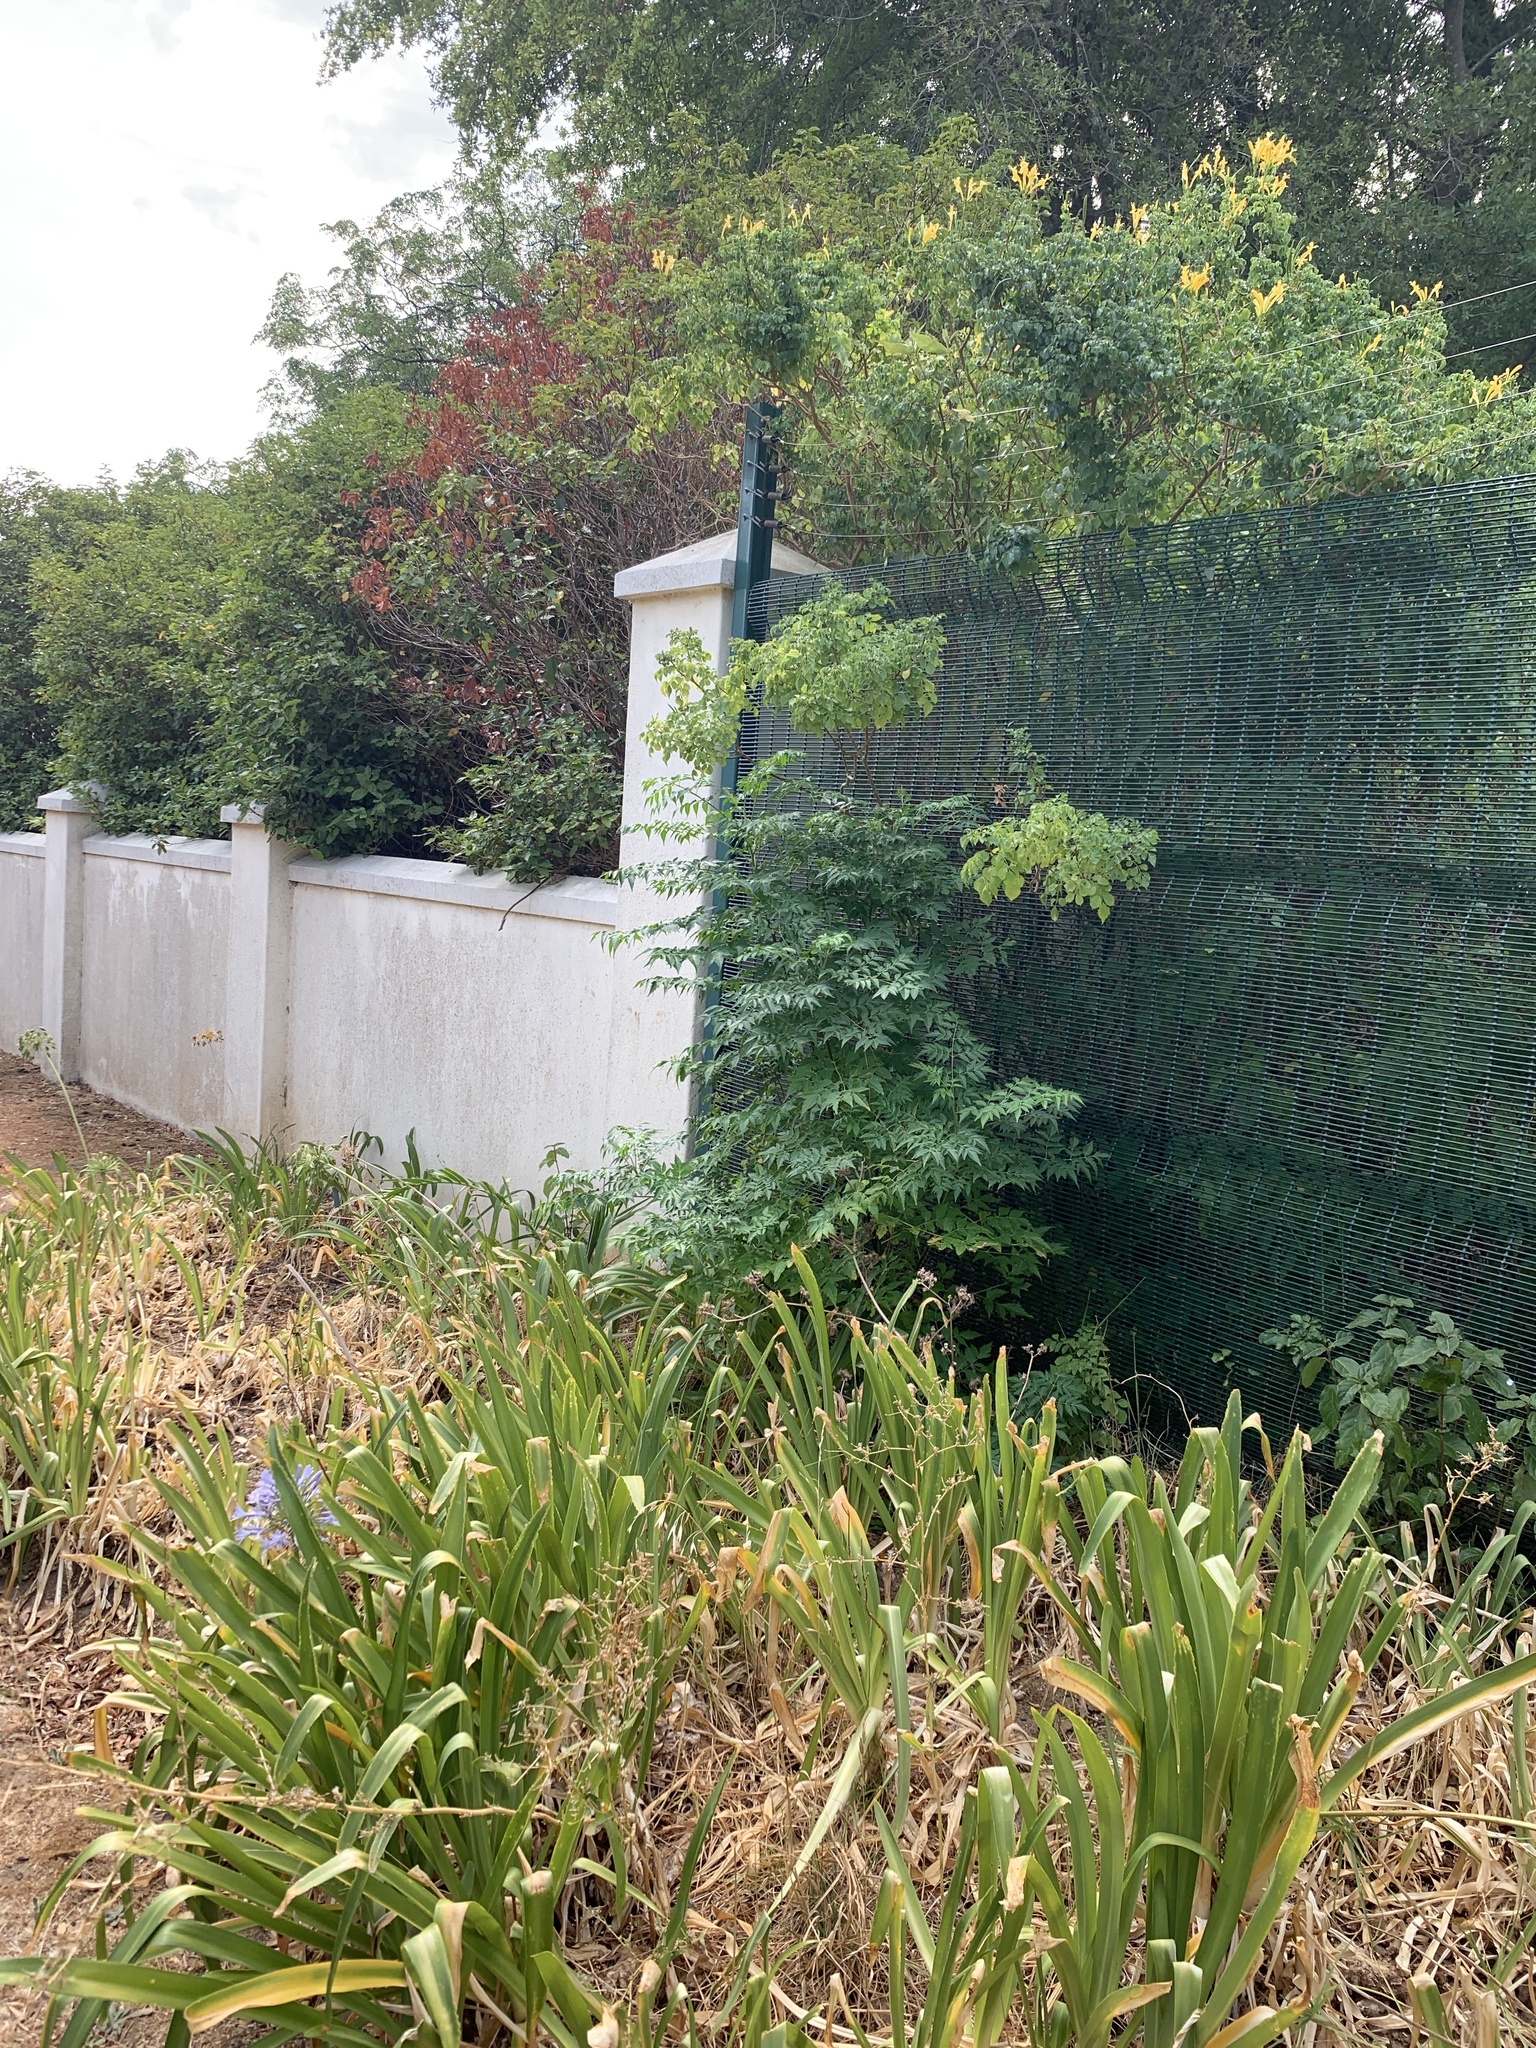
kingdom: Plantae
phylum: Tracheophyta
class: Magnoliopsida
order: Sapindales
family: Meliaceae
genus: Melia
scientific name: Melia azedarach
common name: Chinaberrytree
